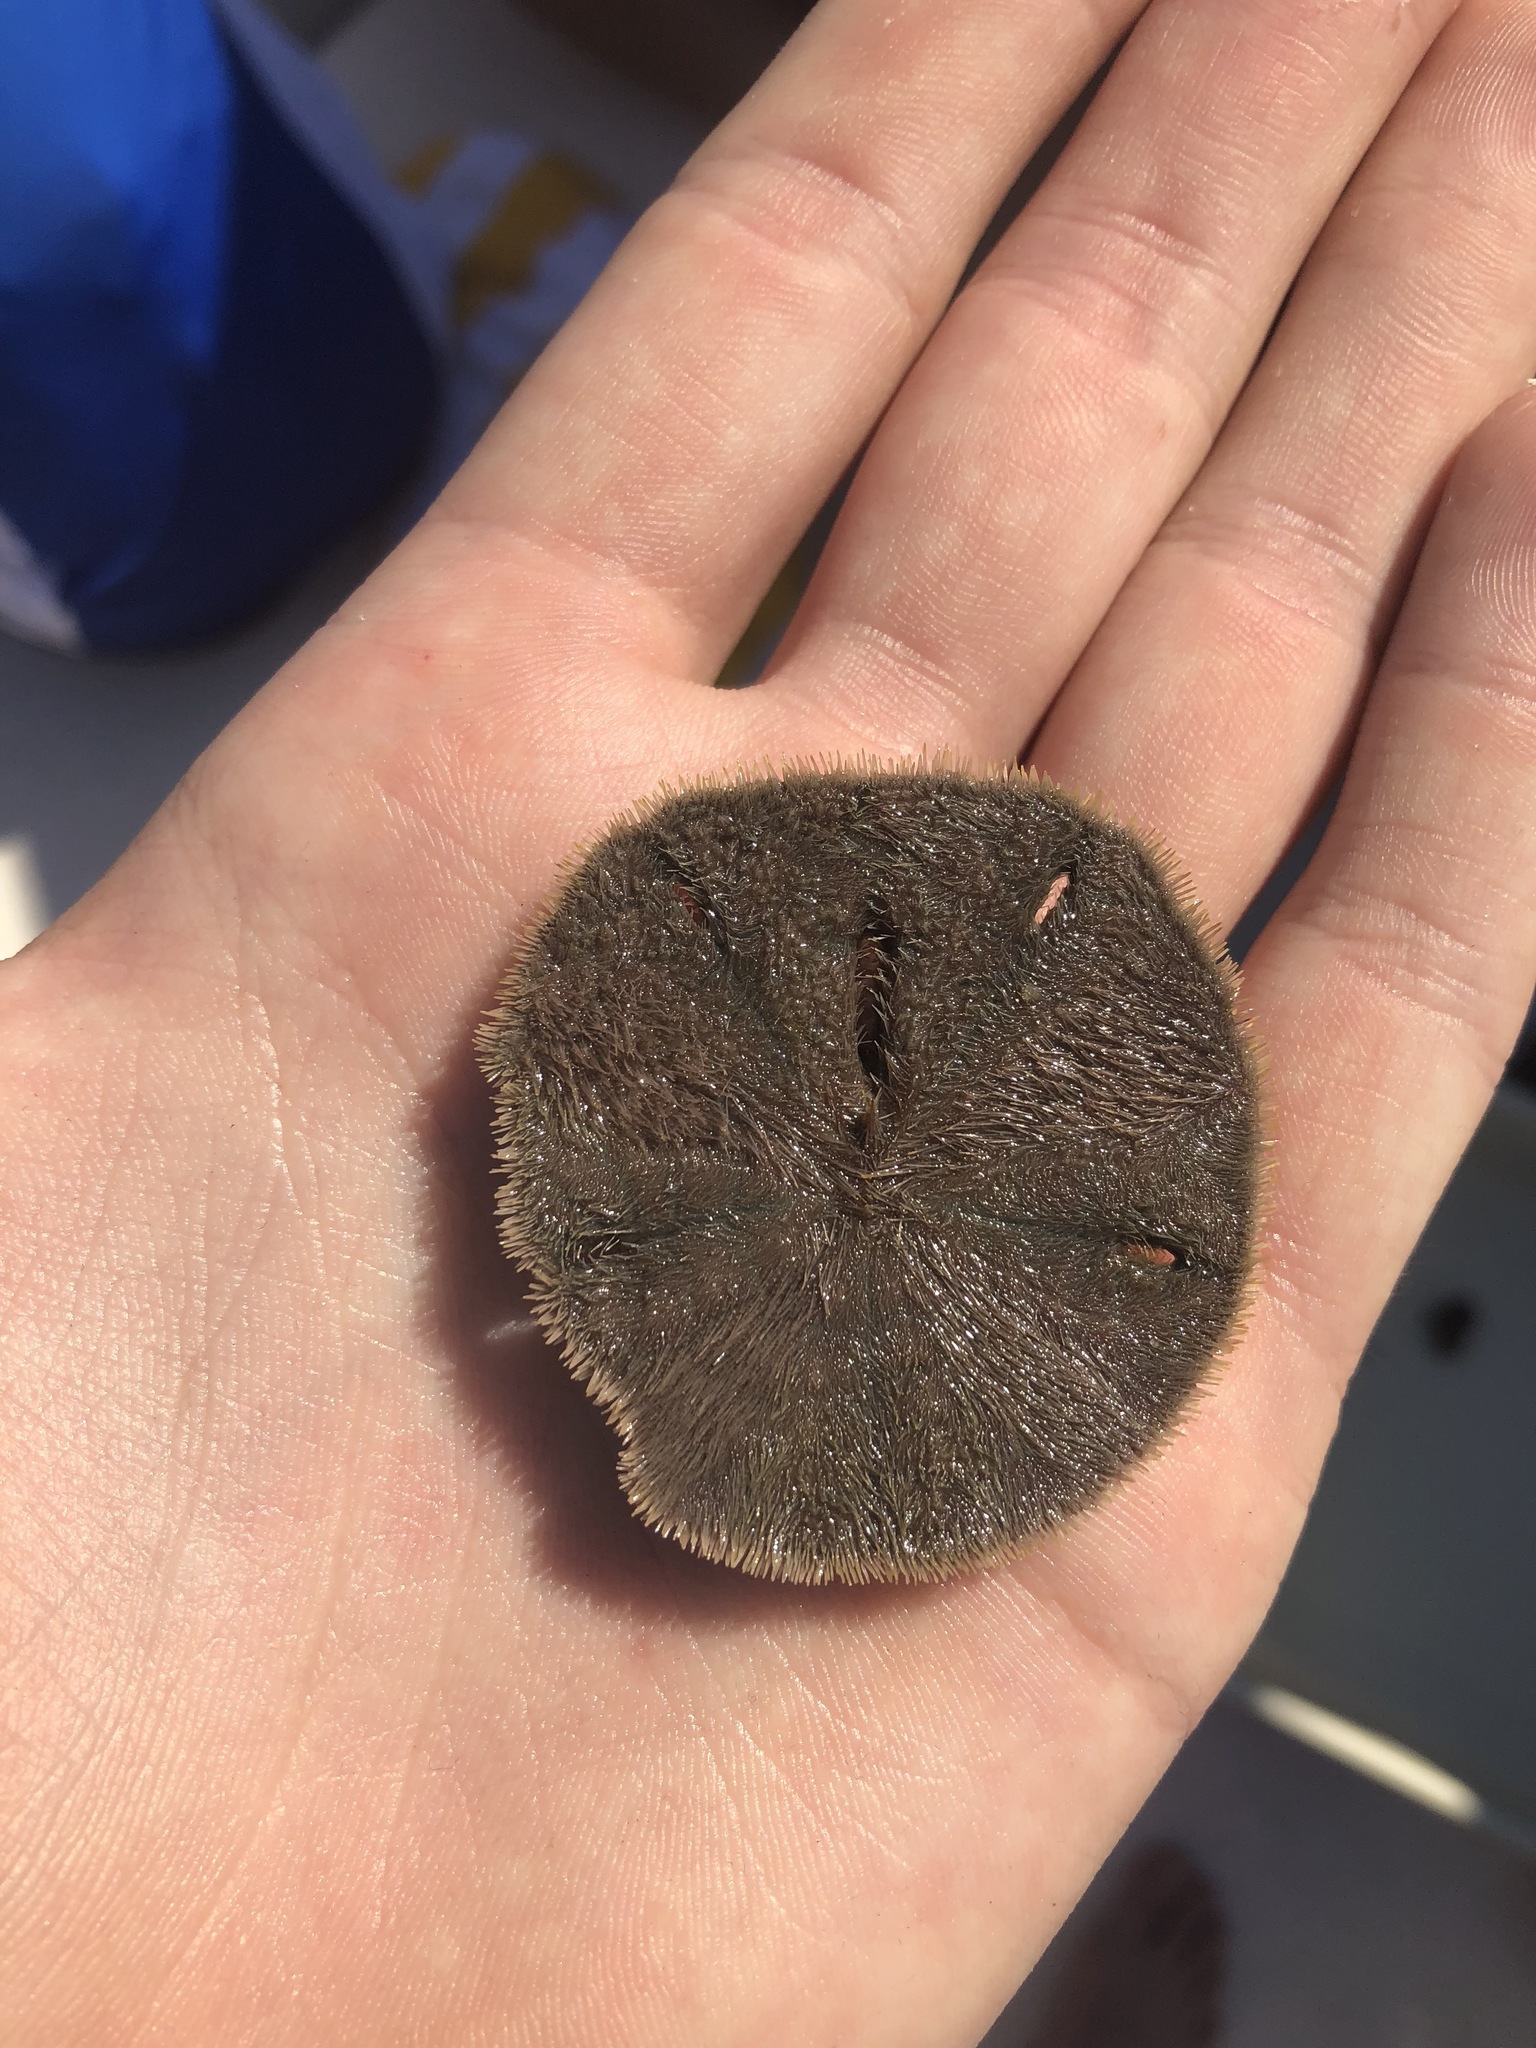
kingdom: Animalia
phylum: Echinodermata
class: Echinoidea
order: Echinolampadacea
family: Mellitidae
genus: Mellita
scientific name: Mellita tenuis
